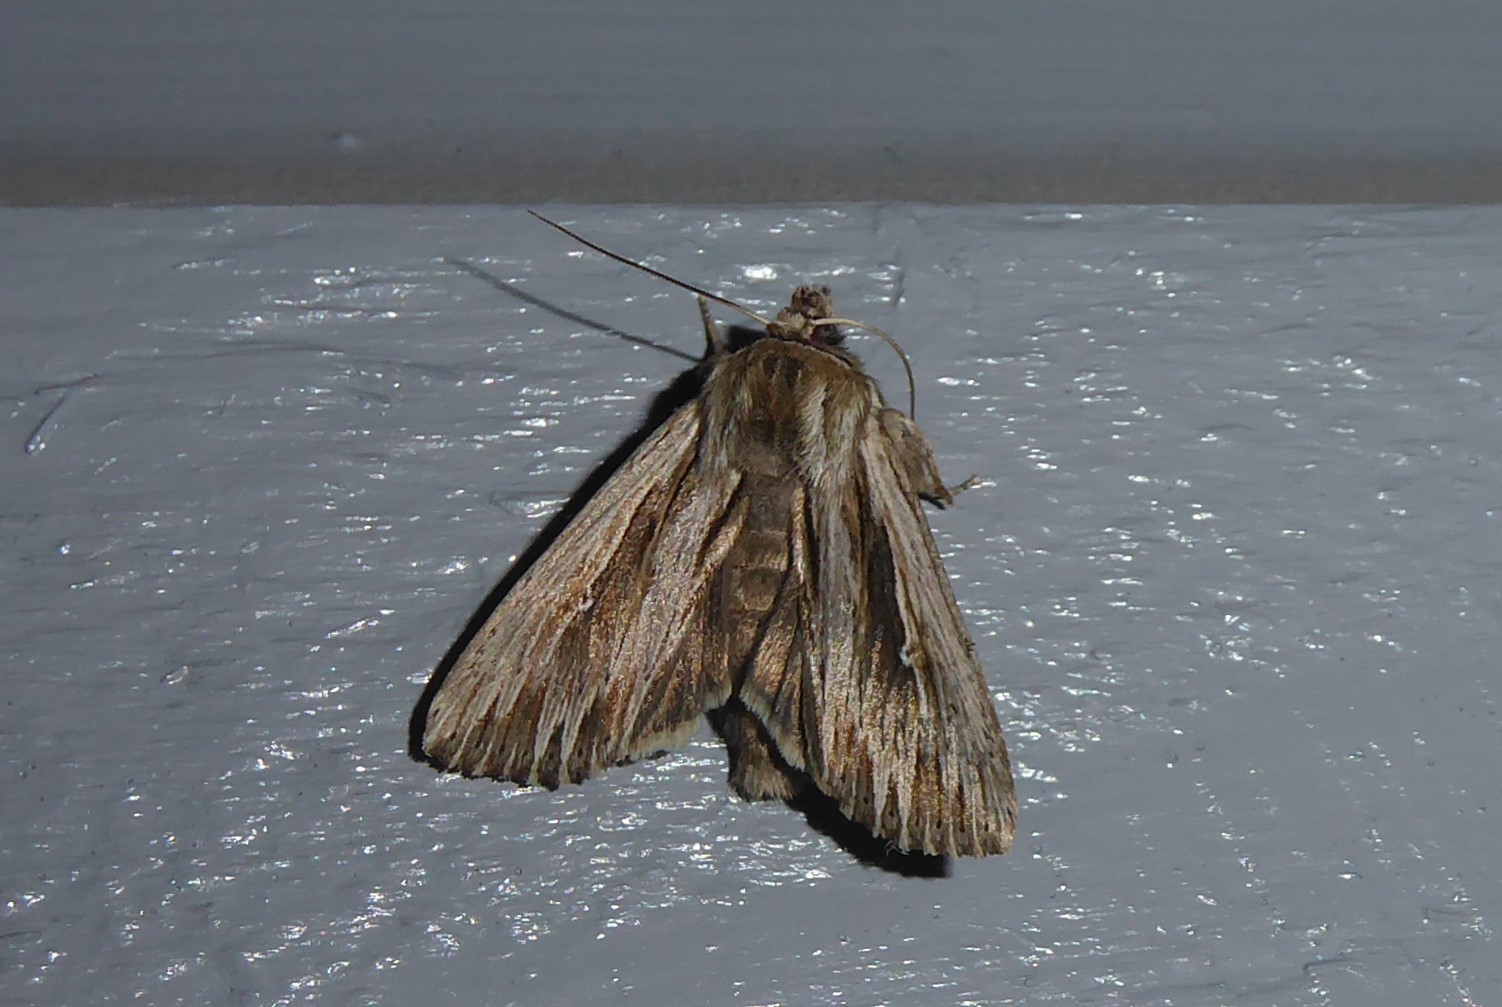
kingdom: Animalia
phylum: Arthropoda
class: Insecta
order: Lepidoptera
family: Noctuidae
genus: Persectania
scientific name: Persectania aversa
